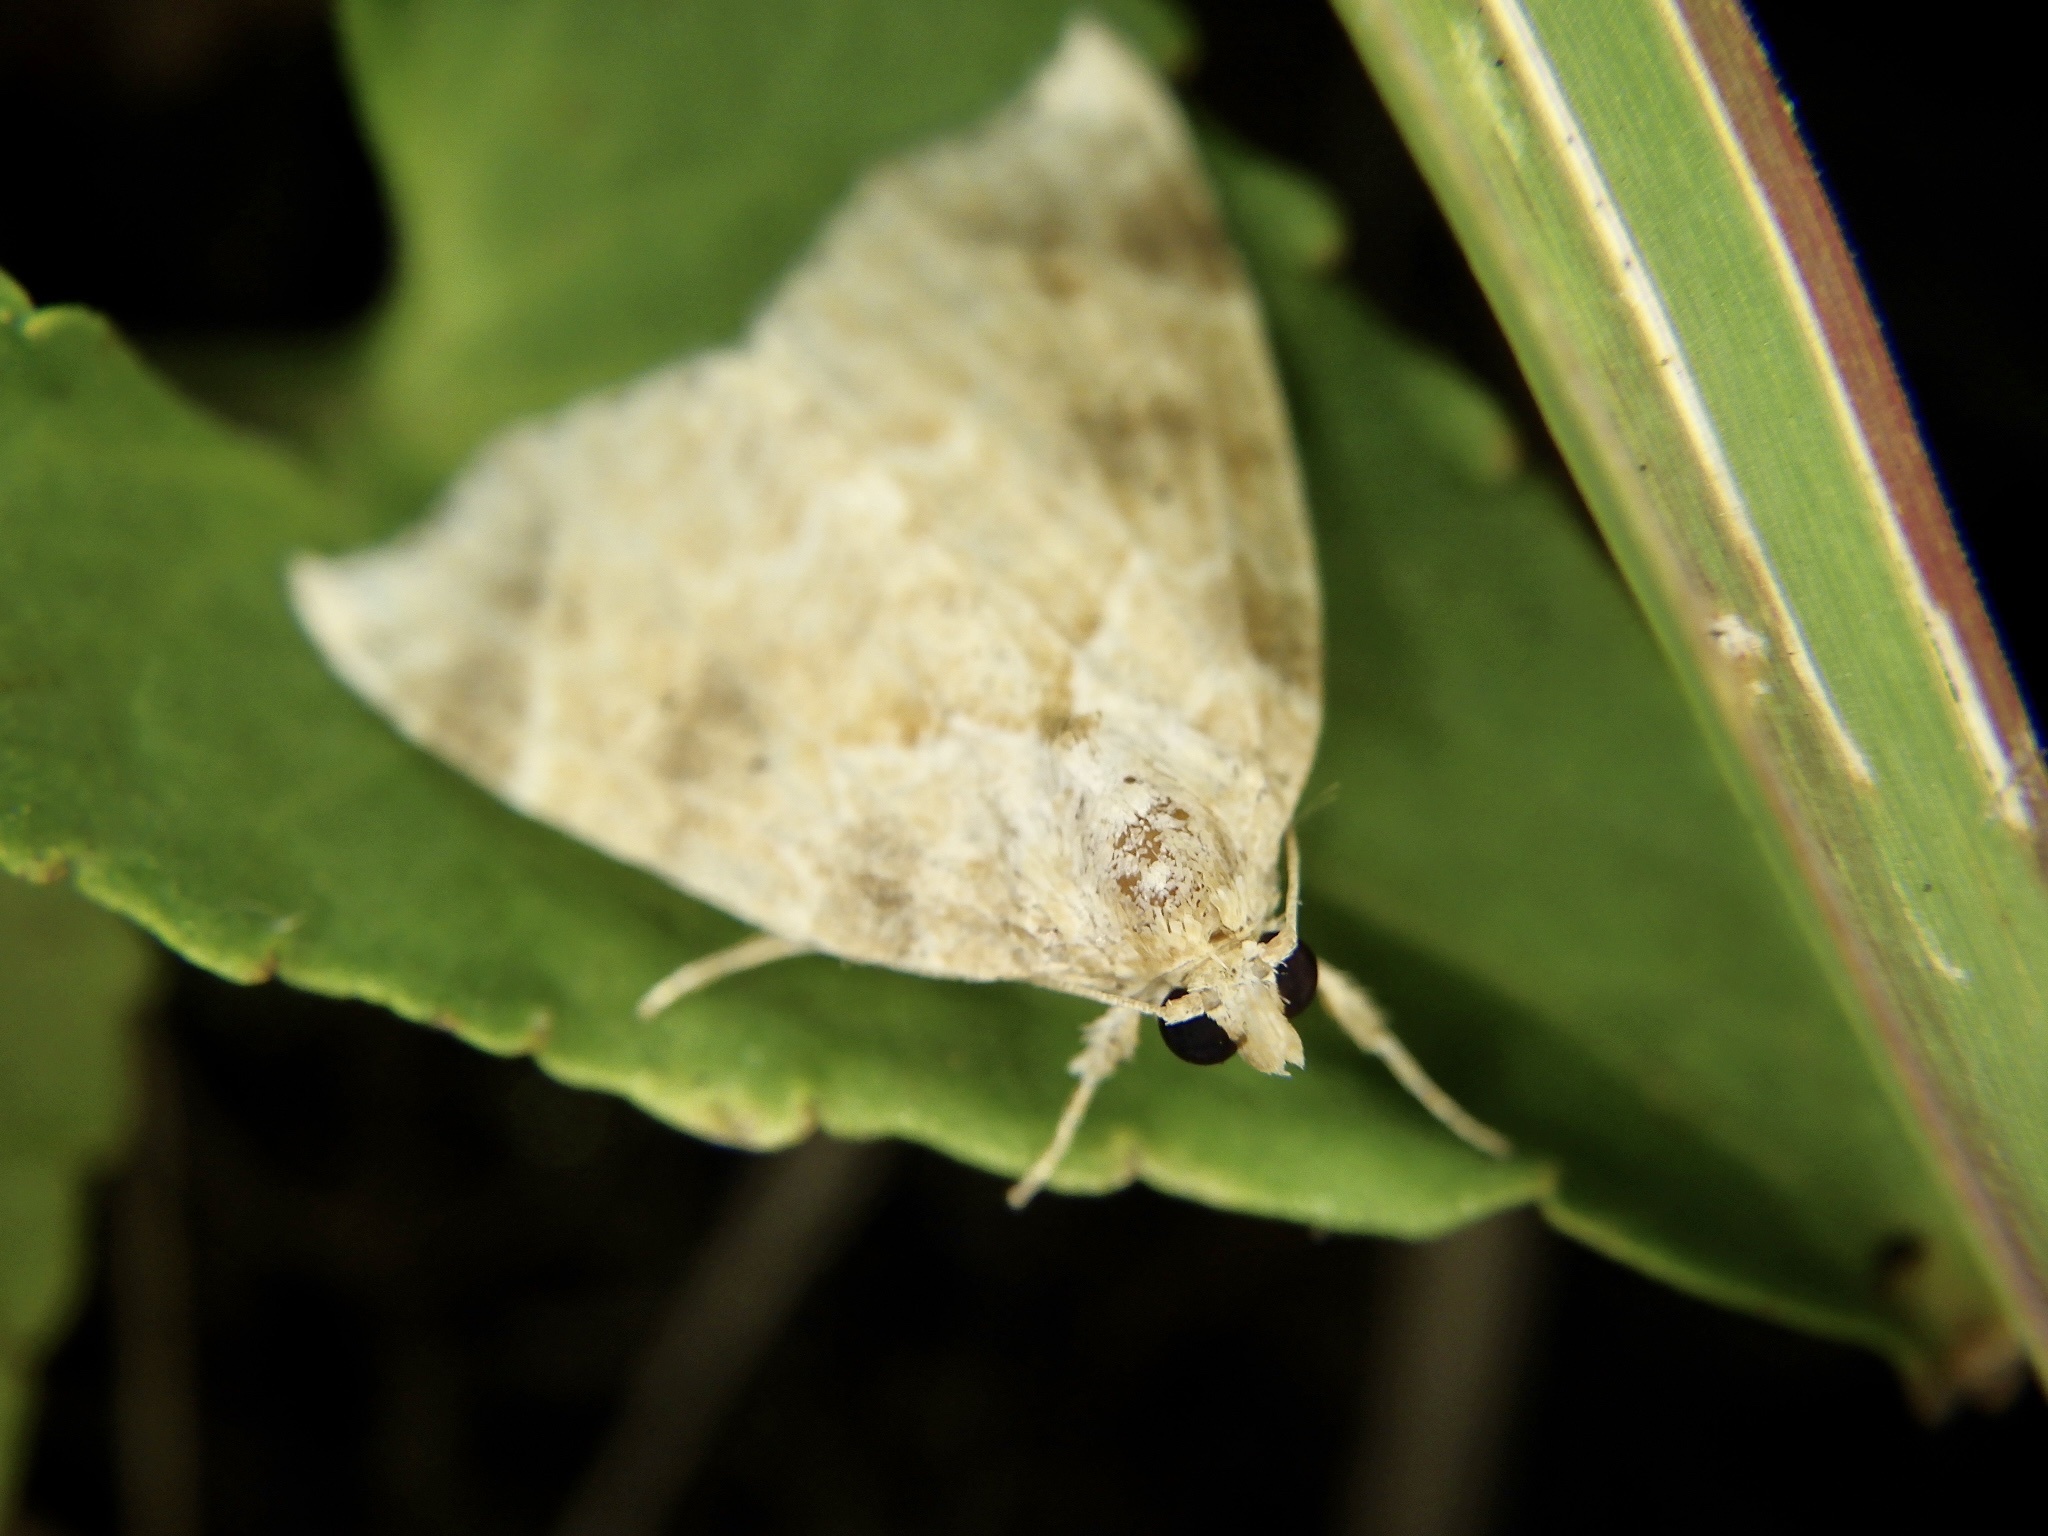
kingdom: Animalia
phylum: Arthropoda
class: Insecta
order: Lepidoptera
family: Erebidae
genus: Olulis
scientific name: Olulis
